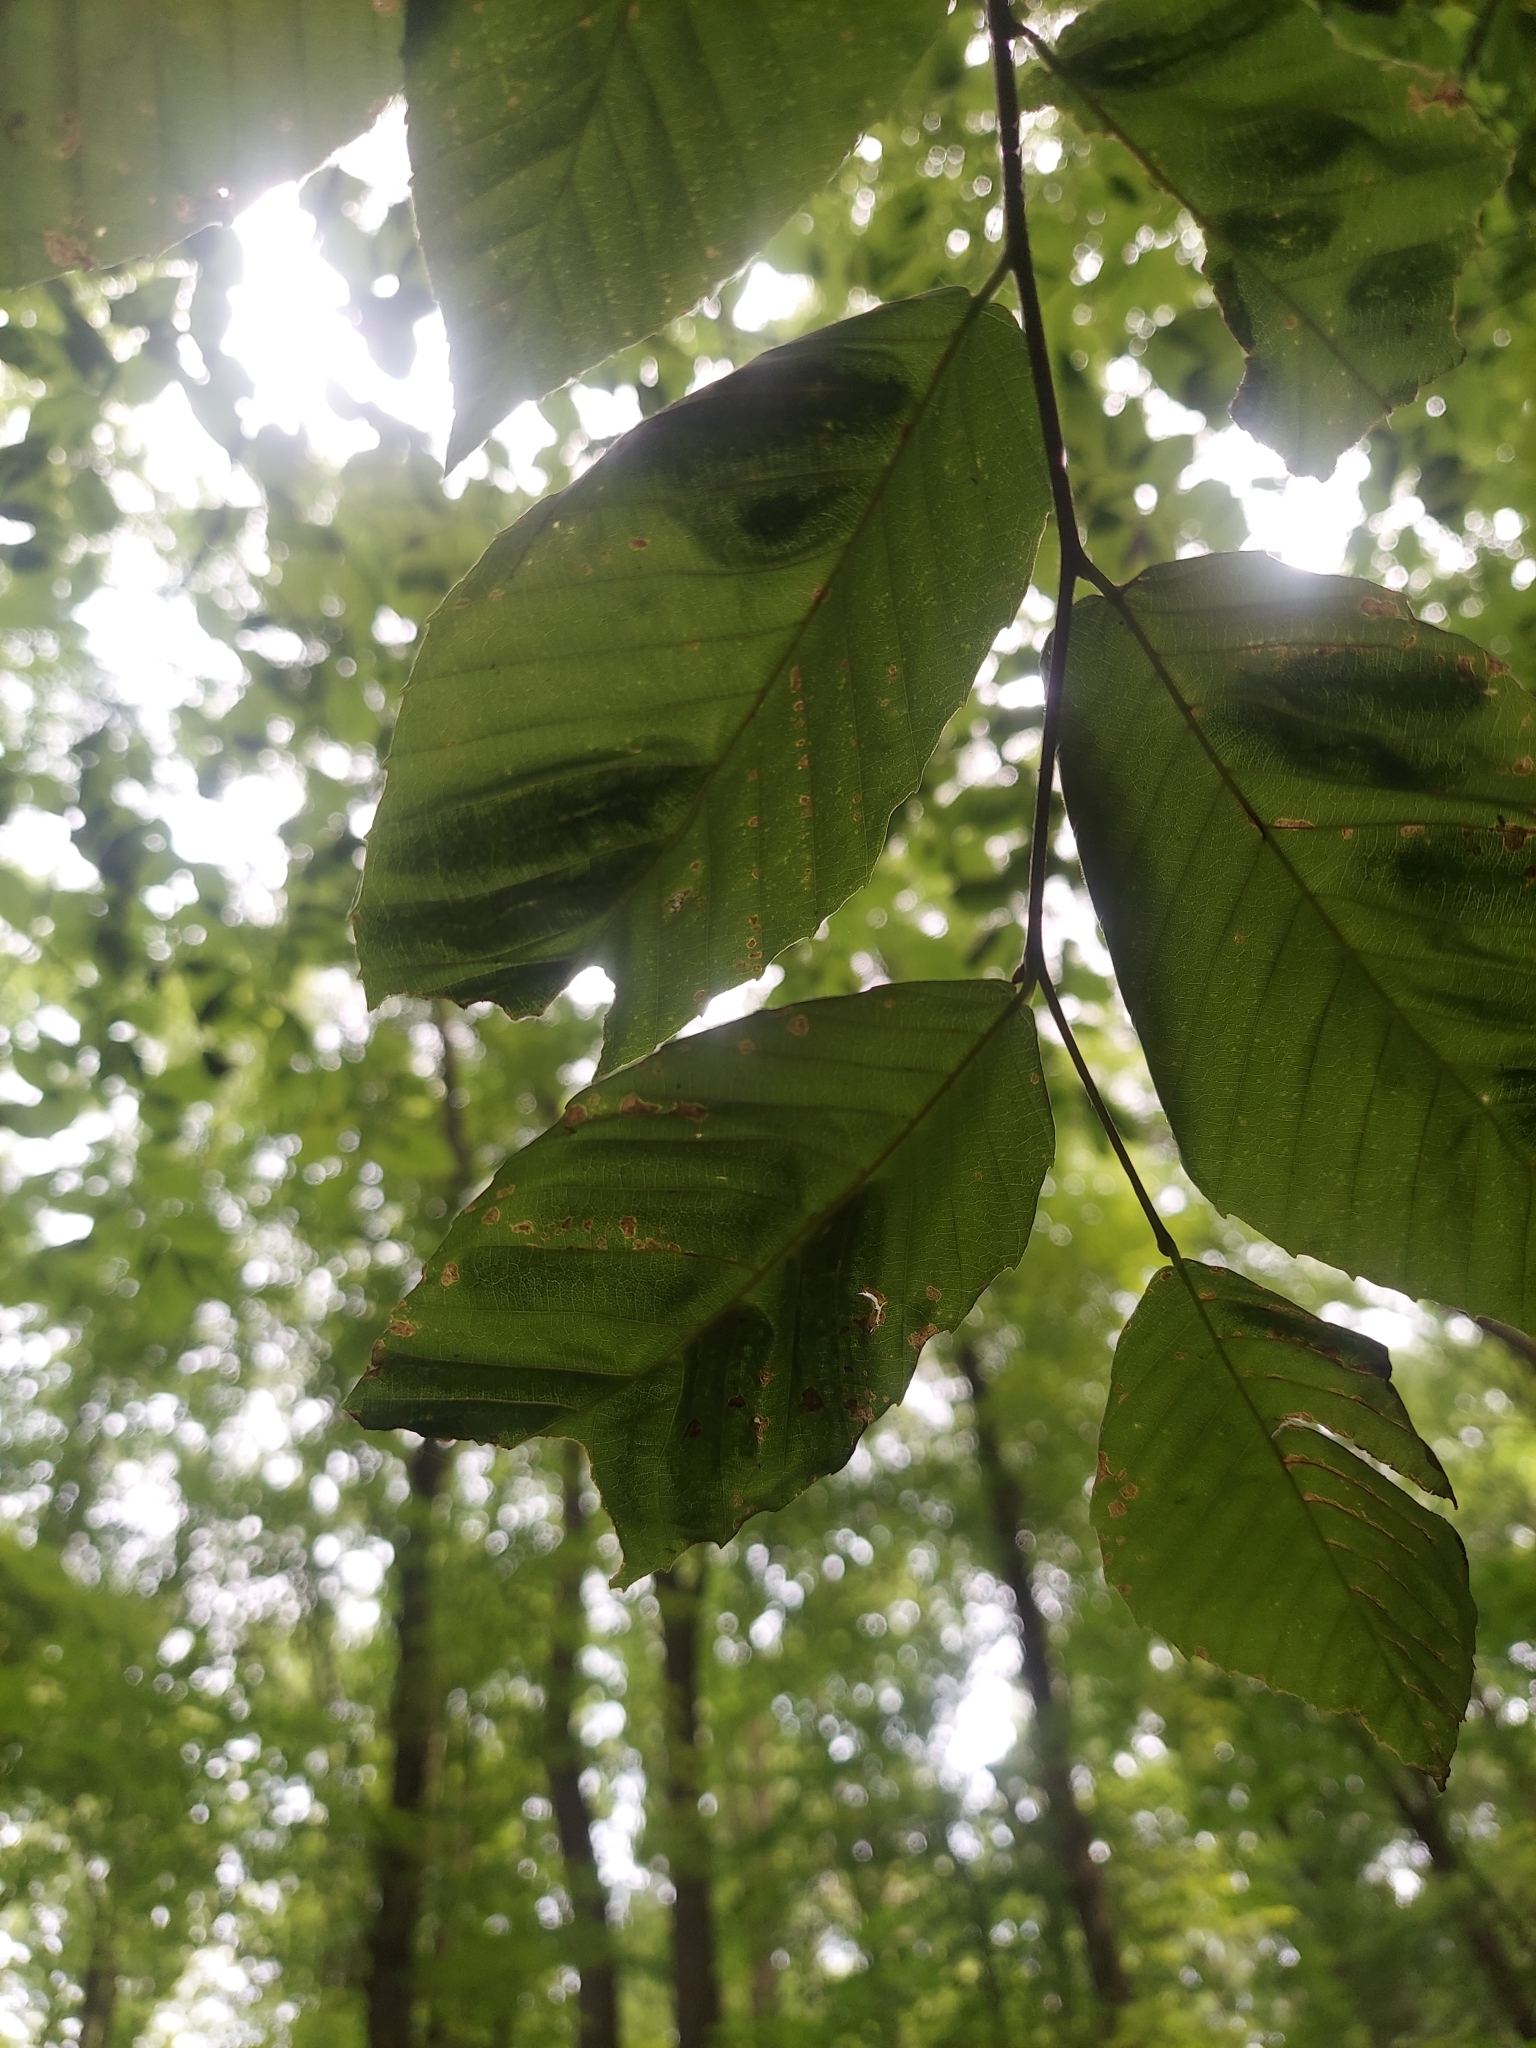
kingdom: Animalia
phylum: Nematoda
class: Chromadorea
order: Rhabditida
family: Anguinidae
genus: Litylenchus
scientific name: Litylenchus crenatae
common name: Beech leaf disease
